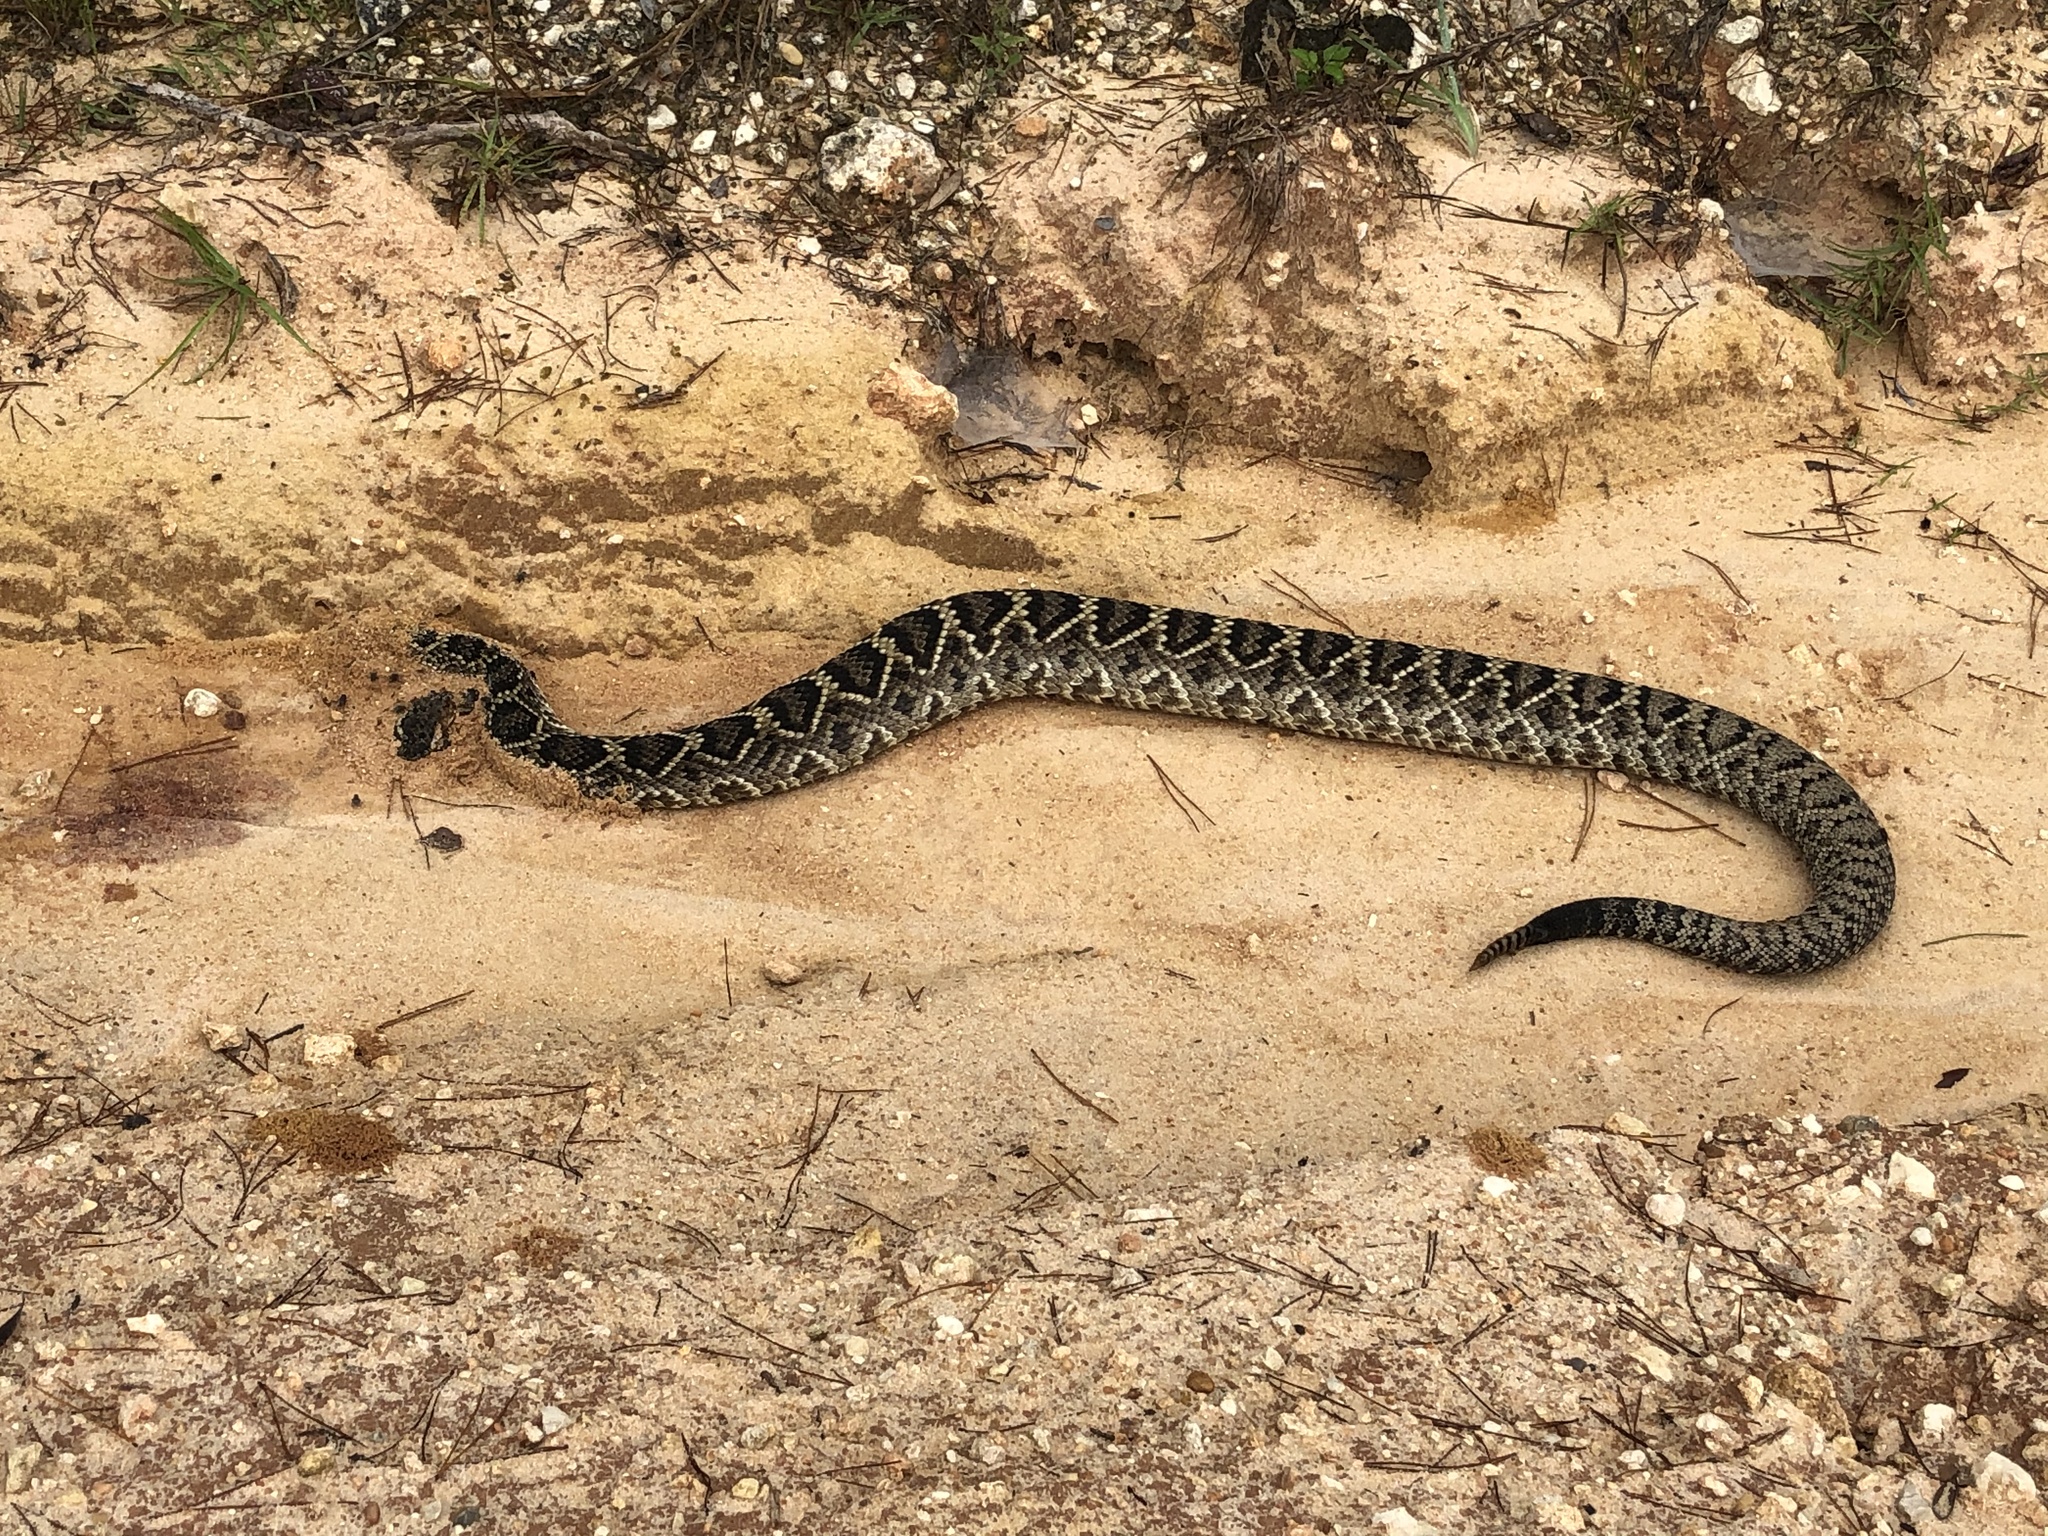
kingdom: Animalia
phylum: Chordata
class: Squamata
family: Viperidae
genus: Crotalus
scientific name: Crotalus adamanteus
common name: Eastern diamondback rattlesnake
